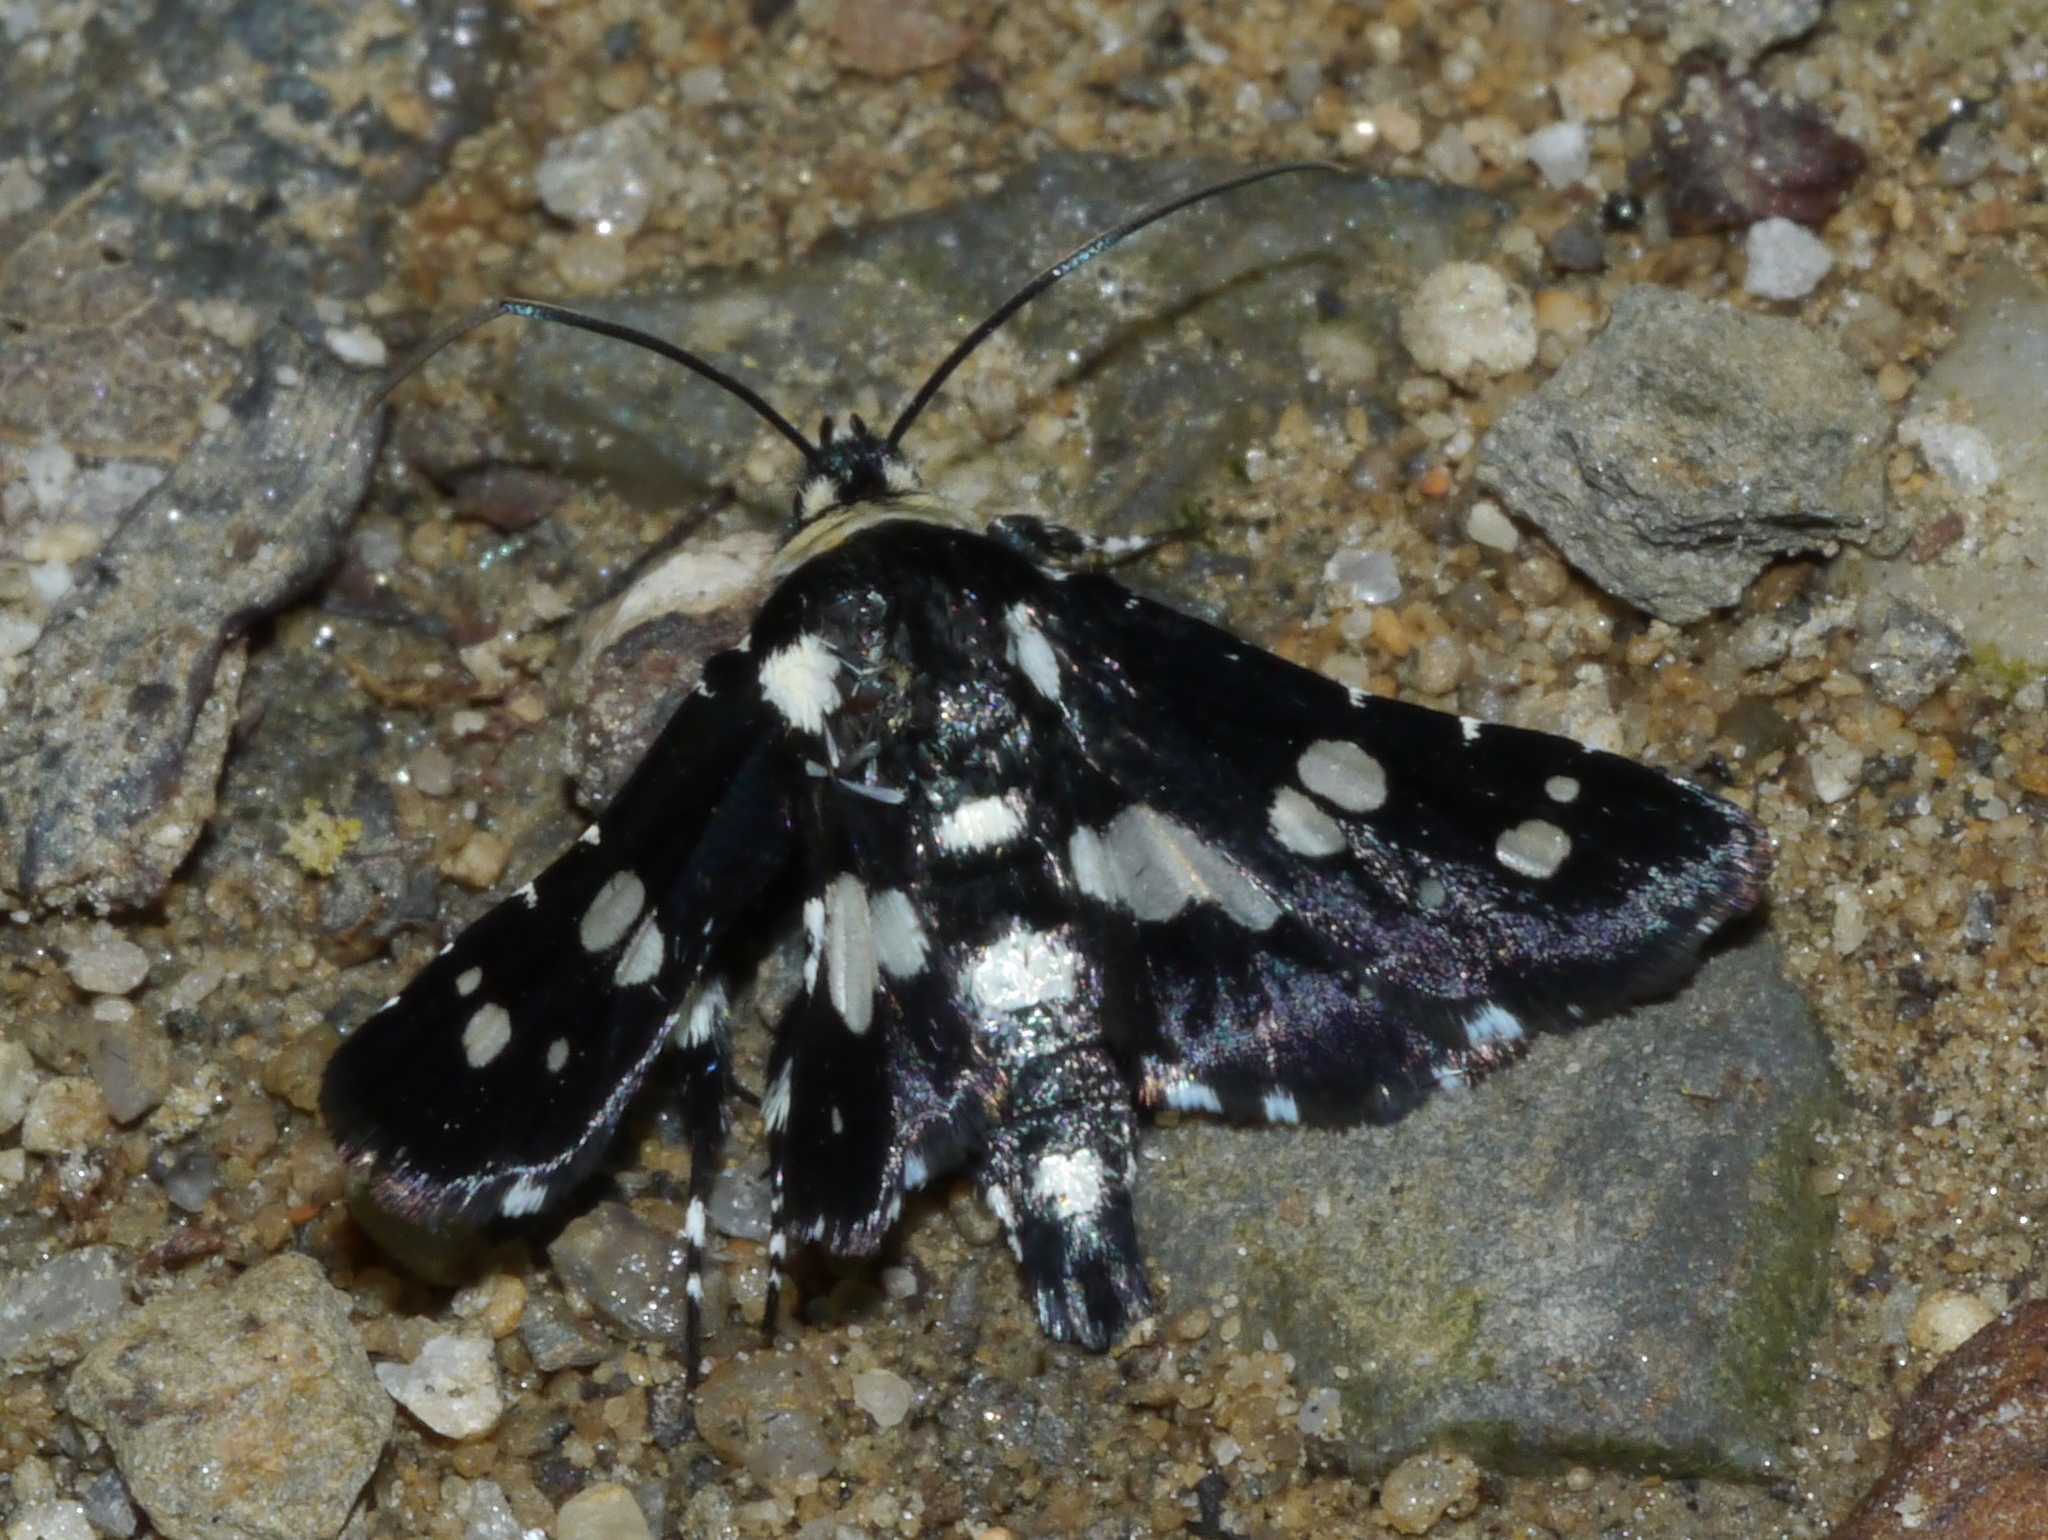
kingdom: Animalia
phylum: Arthropoda
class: Insecta
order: Lepidoptera
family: Thyrididae
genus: Pseudothyris
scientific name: Pseudothyris sepulchralis
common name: Mournful thyris moth
